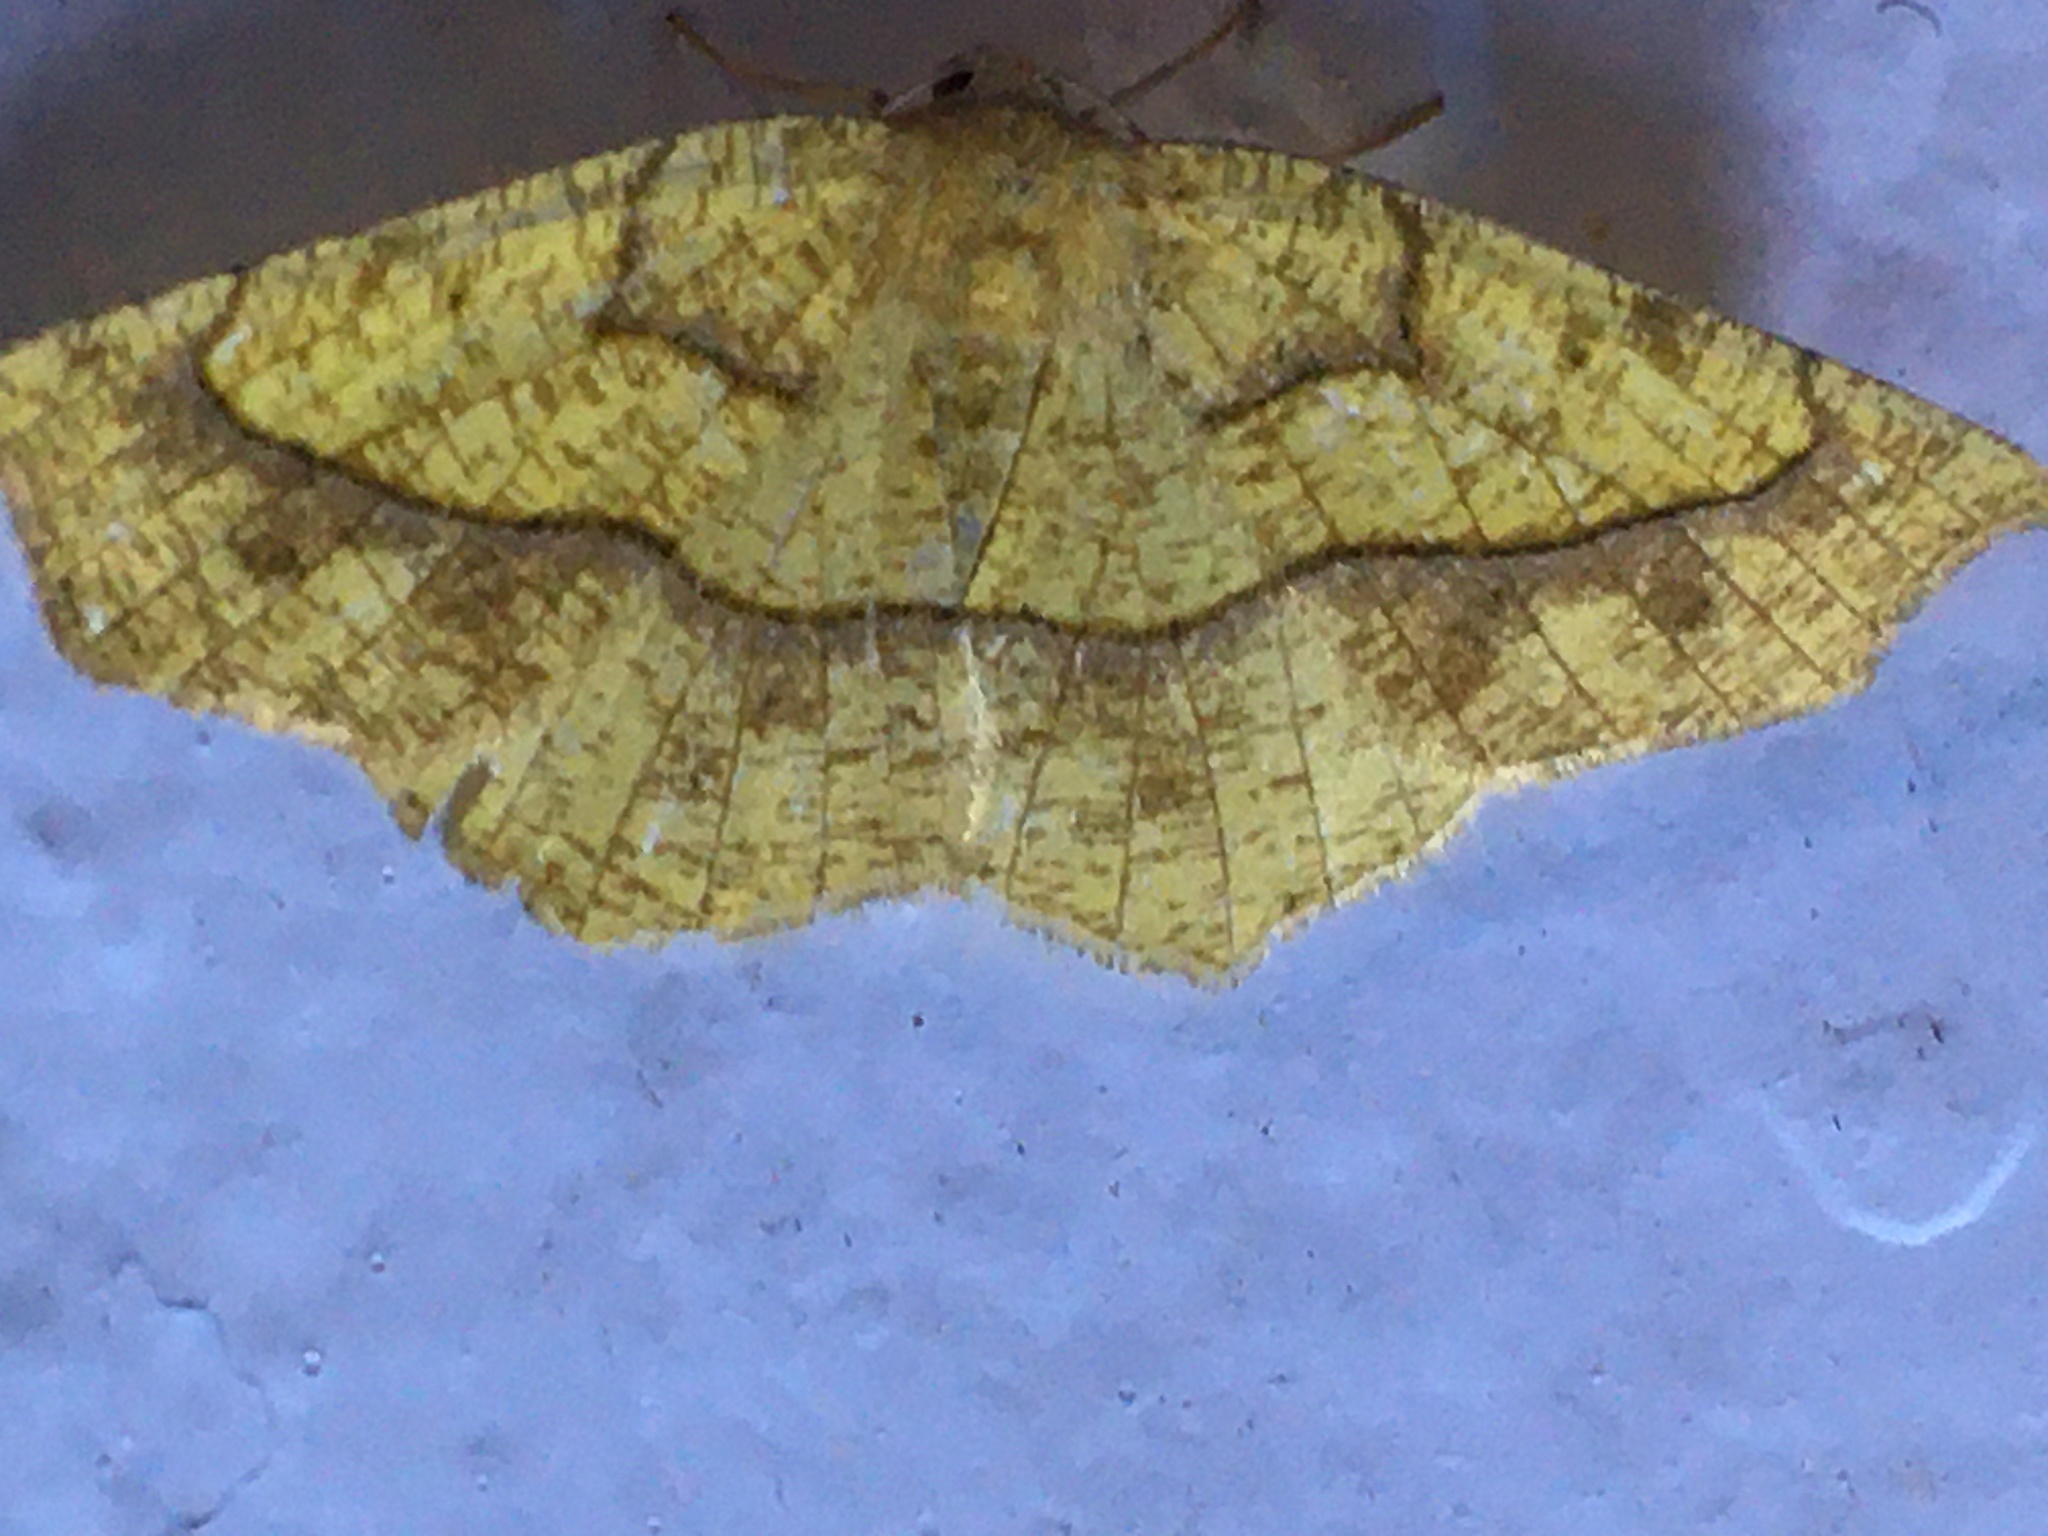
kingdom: Animalia
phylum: Arthropoda
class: Insecta
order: Lepidoptera
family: Geometridae
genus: Periclina
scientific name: Periclina syctaria
